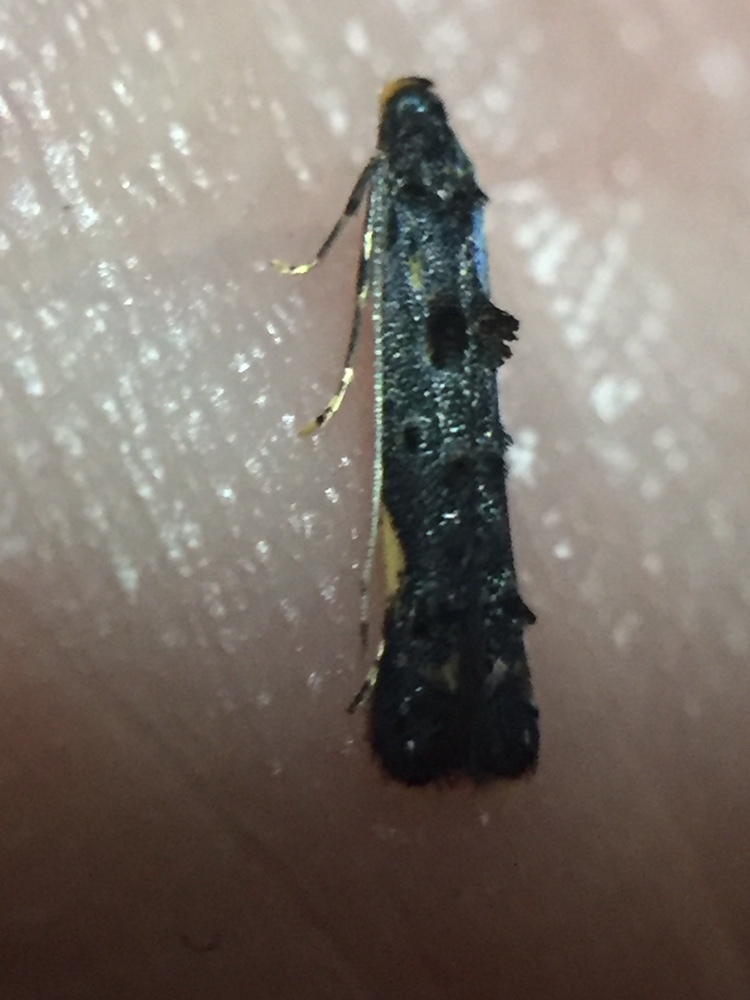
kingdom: Animalia
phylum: Arthropoda
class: Insecta
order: Lepidoptera
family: Elachistidae
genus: Microcolona
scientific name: Microcolona
